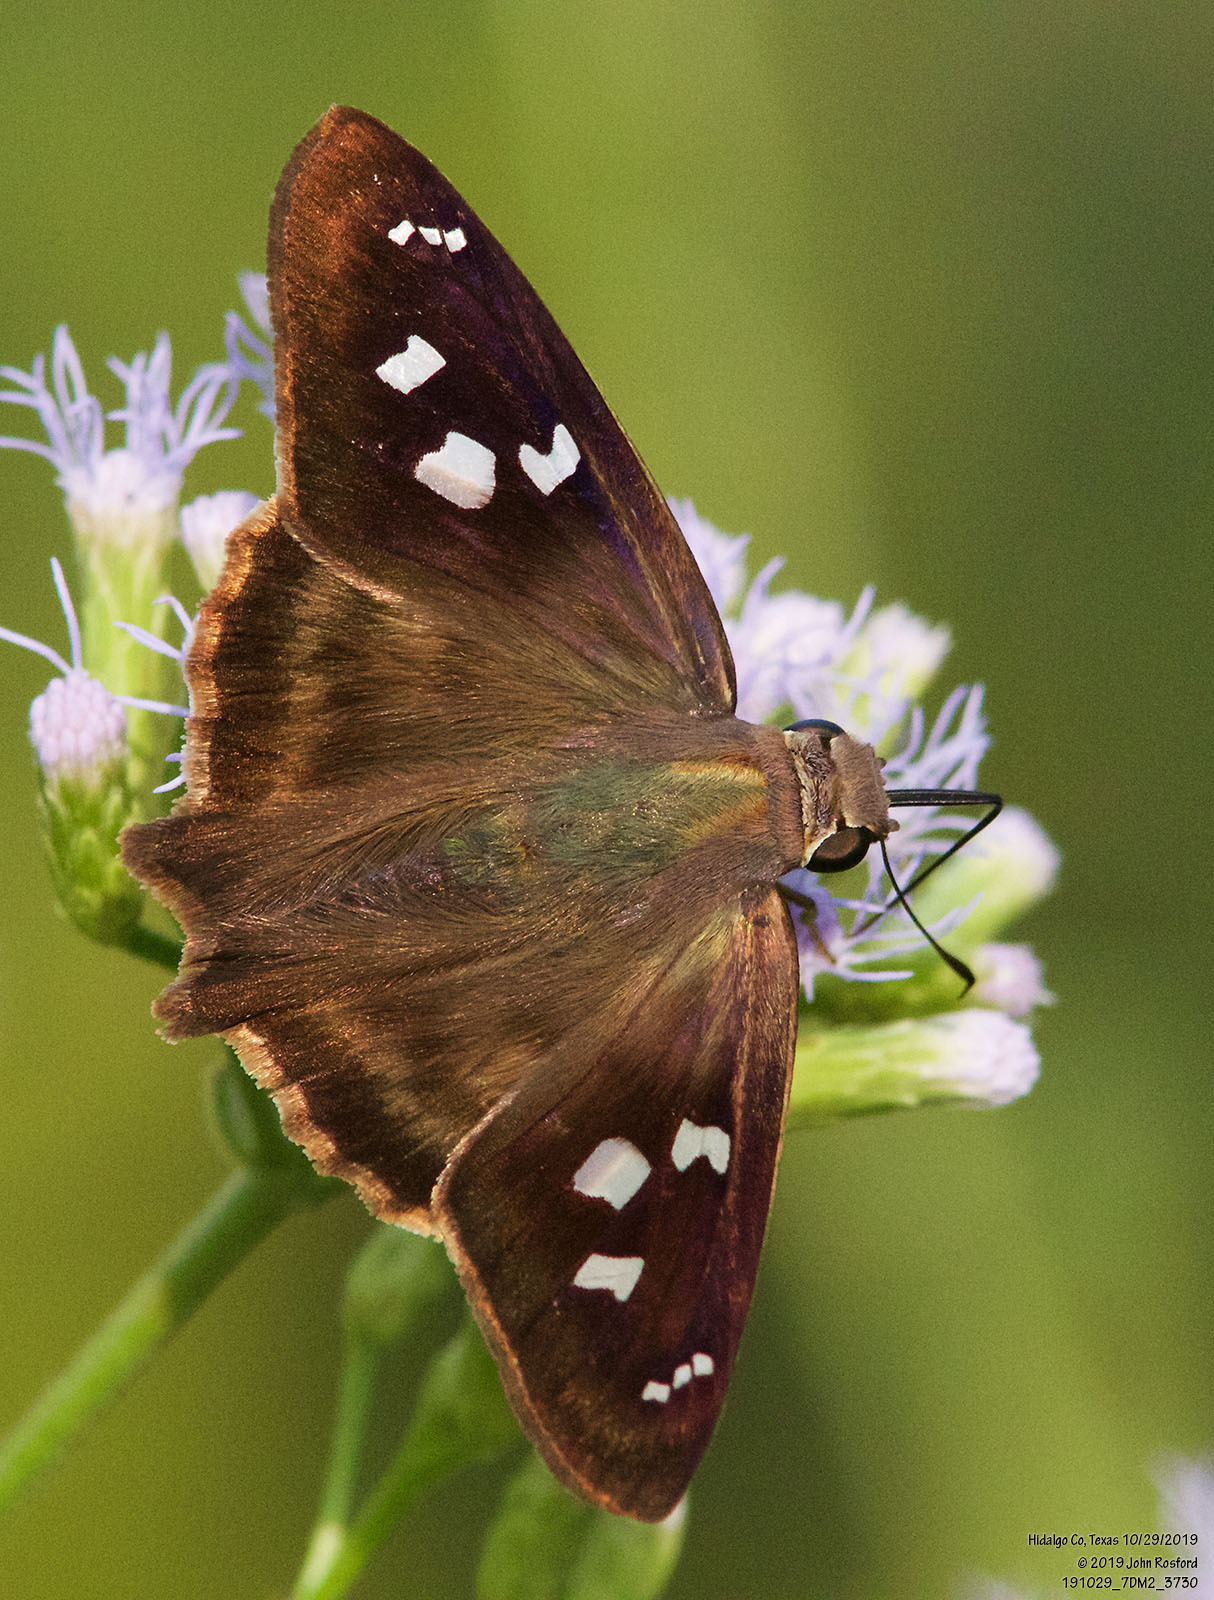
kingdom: Animalia
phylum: Arthropoda
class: Insecta
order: Lepidoptera
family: Hesperiidae
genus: Polygonus
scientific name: Polygonus leo
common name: Hammoch skipper
